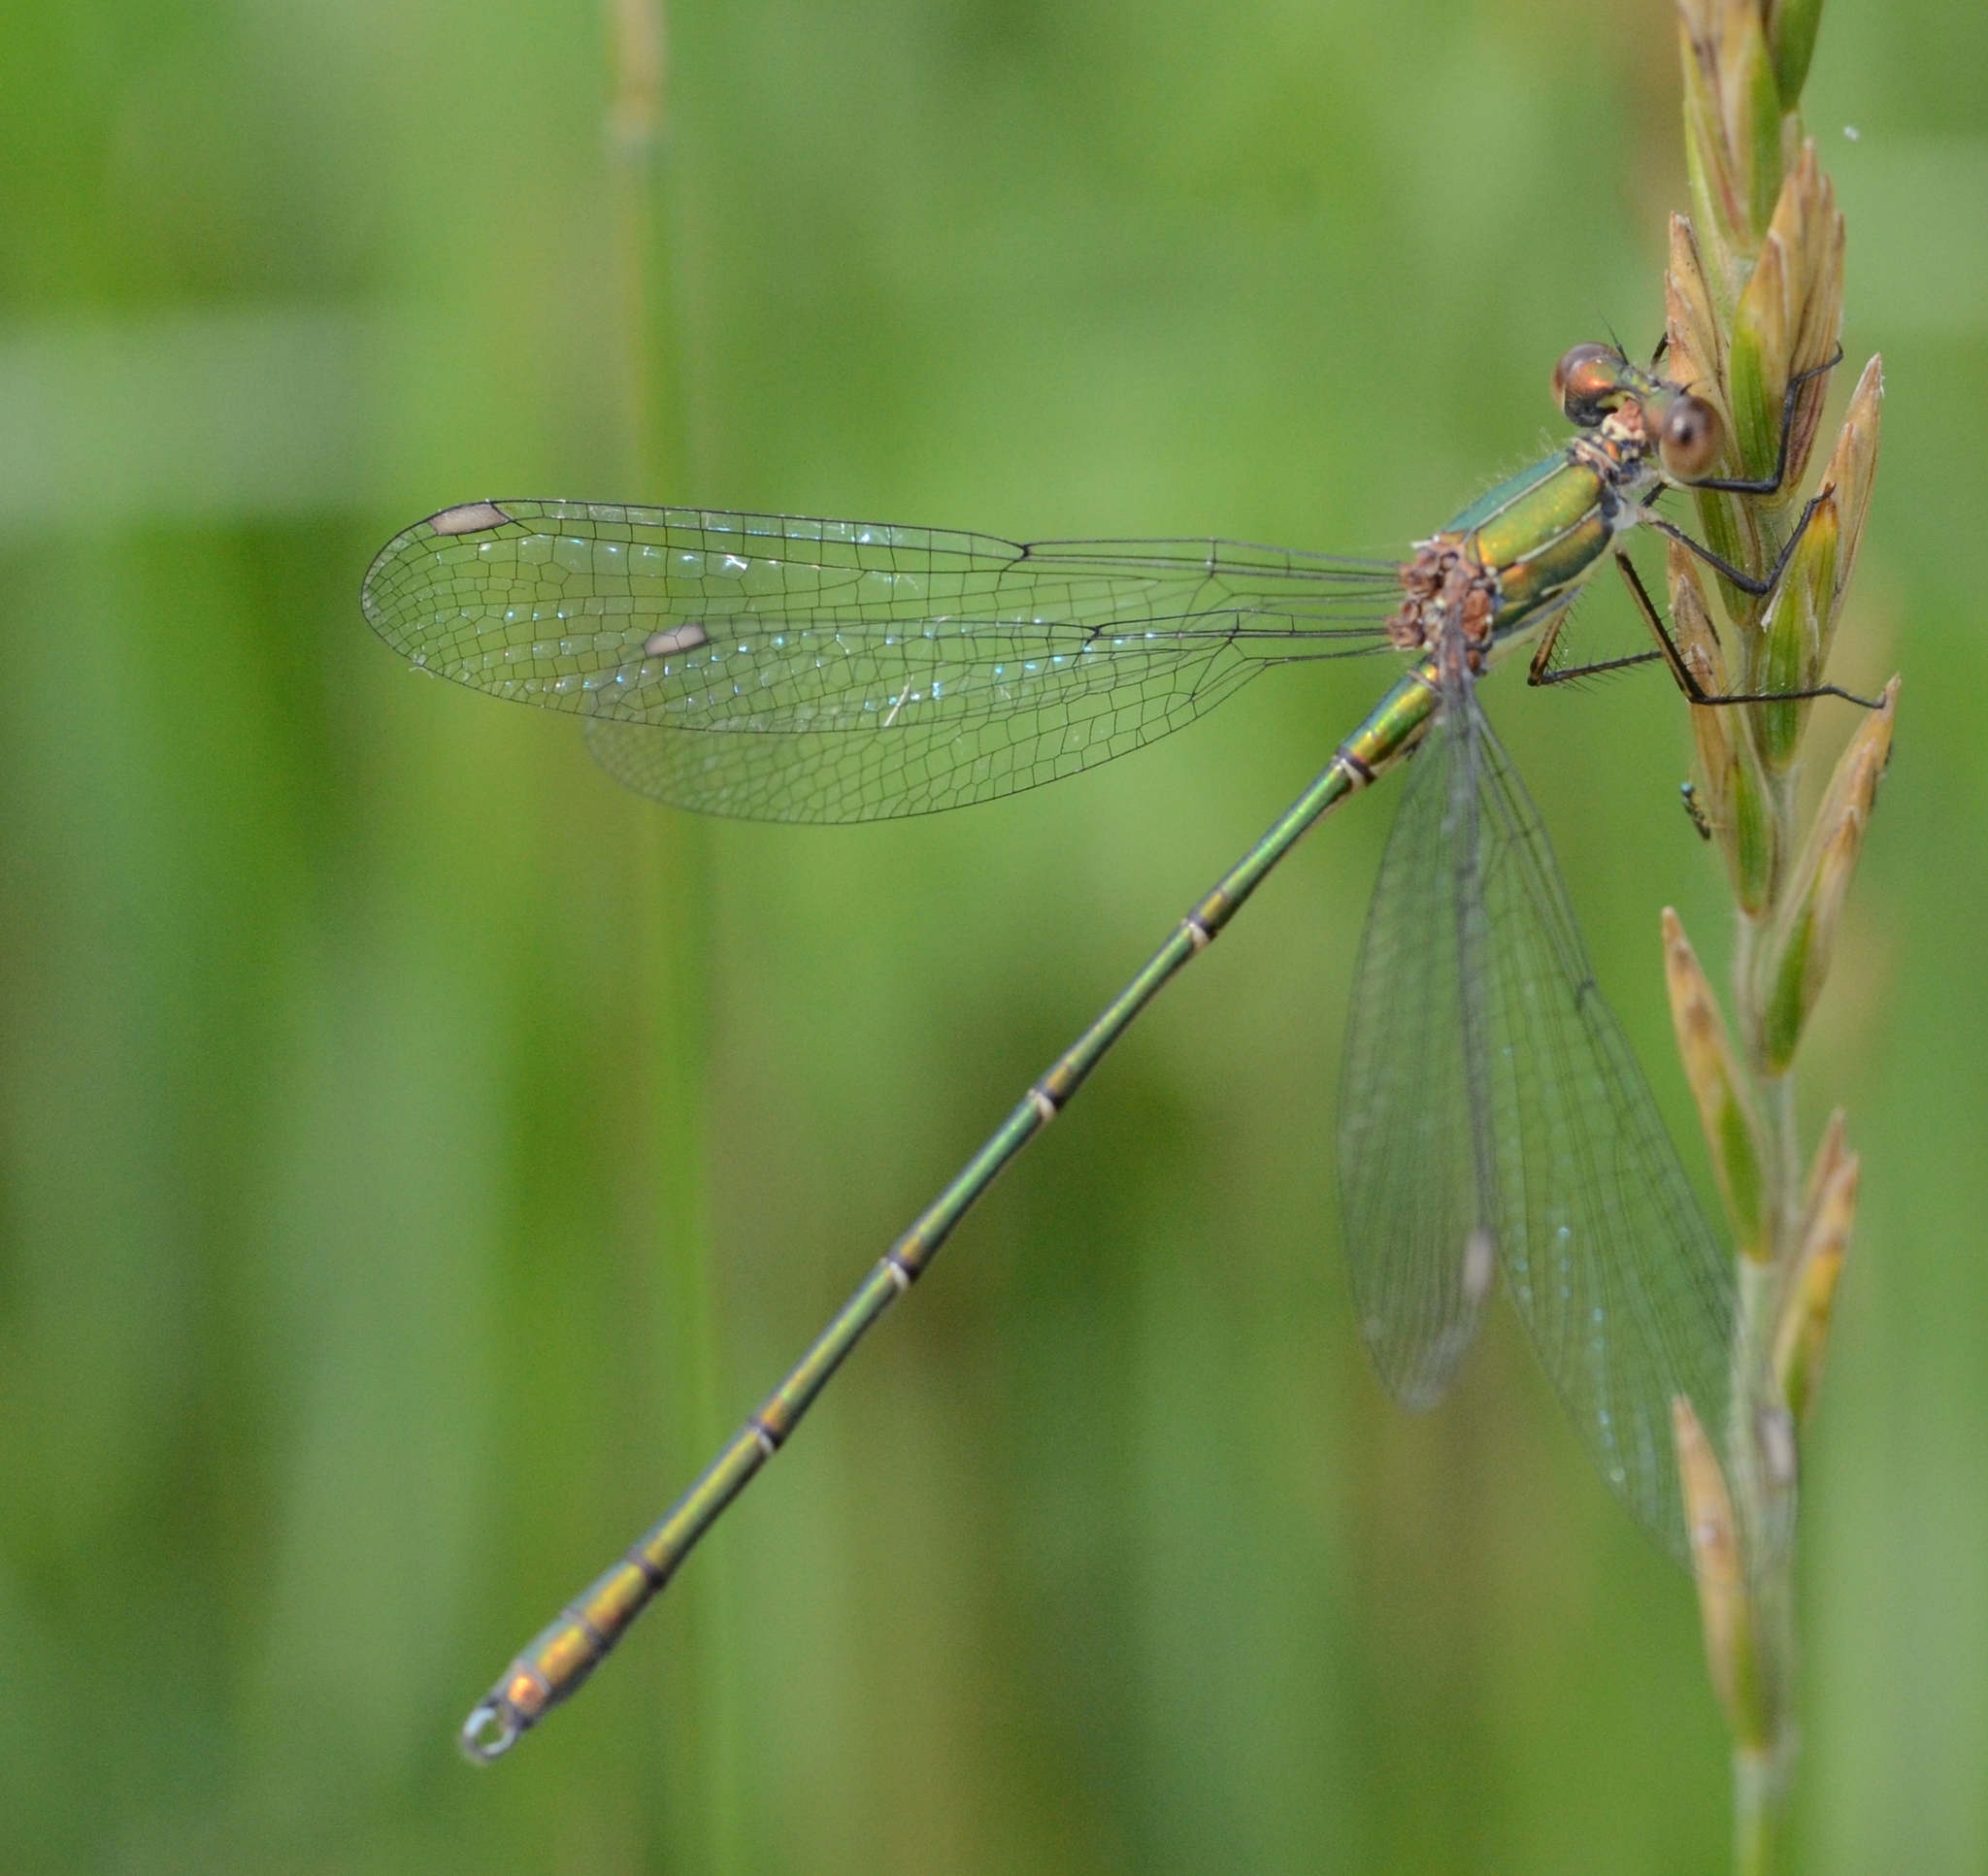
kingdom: Animalia
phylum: Arthropoda
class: Insecta
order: Odonata
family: Lestidae
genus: Chalcolestes
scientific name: Chalcolestes viridis
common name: Green emerald damselfly
